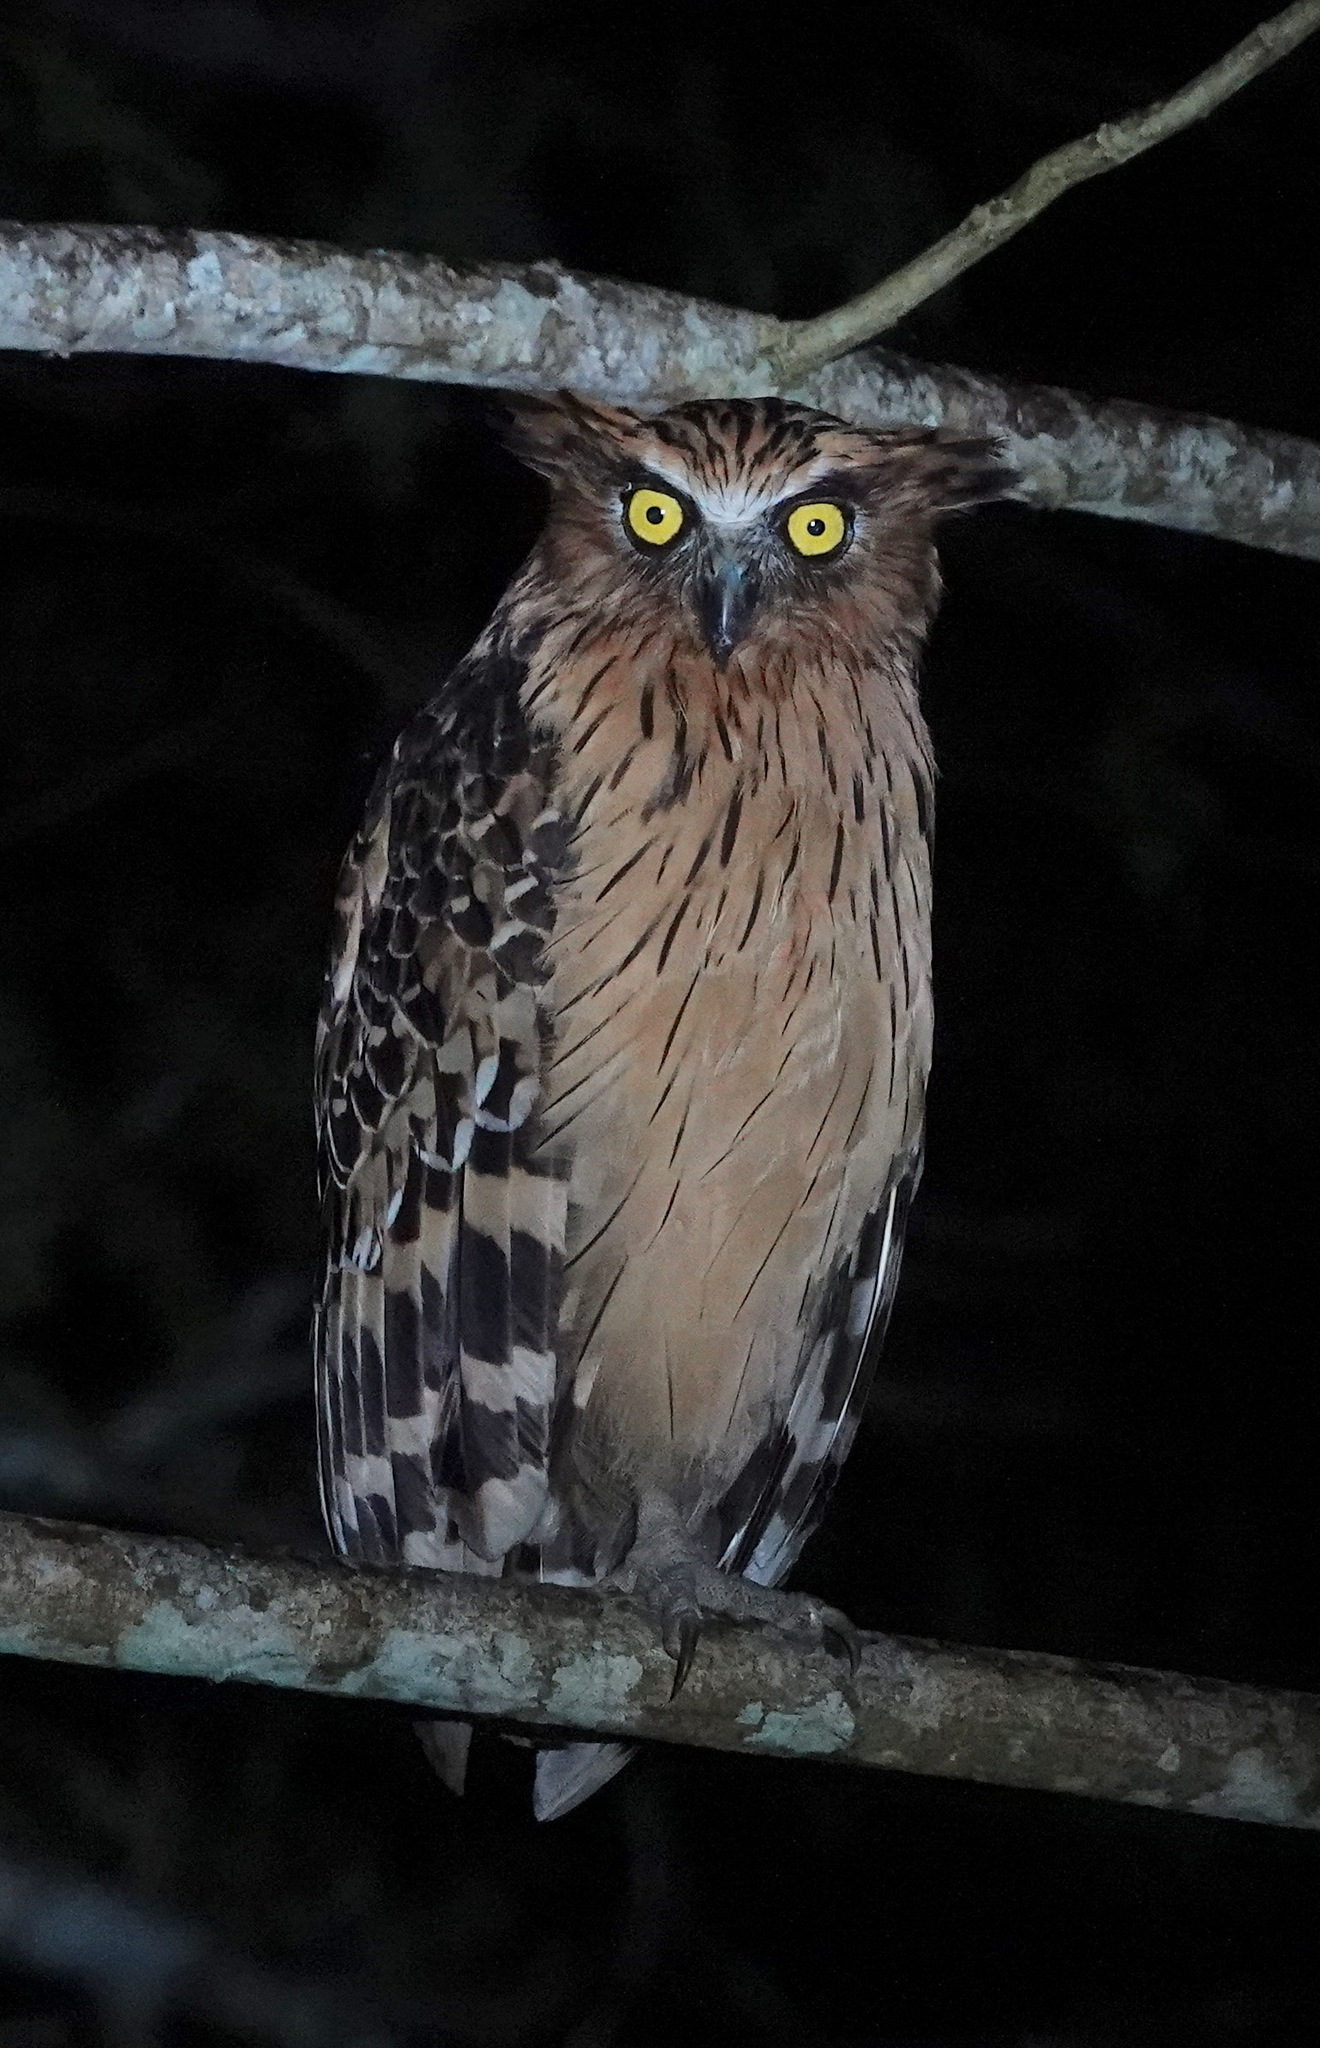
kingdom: Animalia
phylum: Chordata
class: Aves
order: Strigiformes
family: Strigidae
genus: Ketupa
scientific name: Ketupa ketupu
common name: Buffy fish-owl
